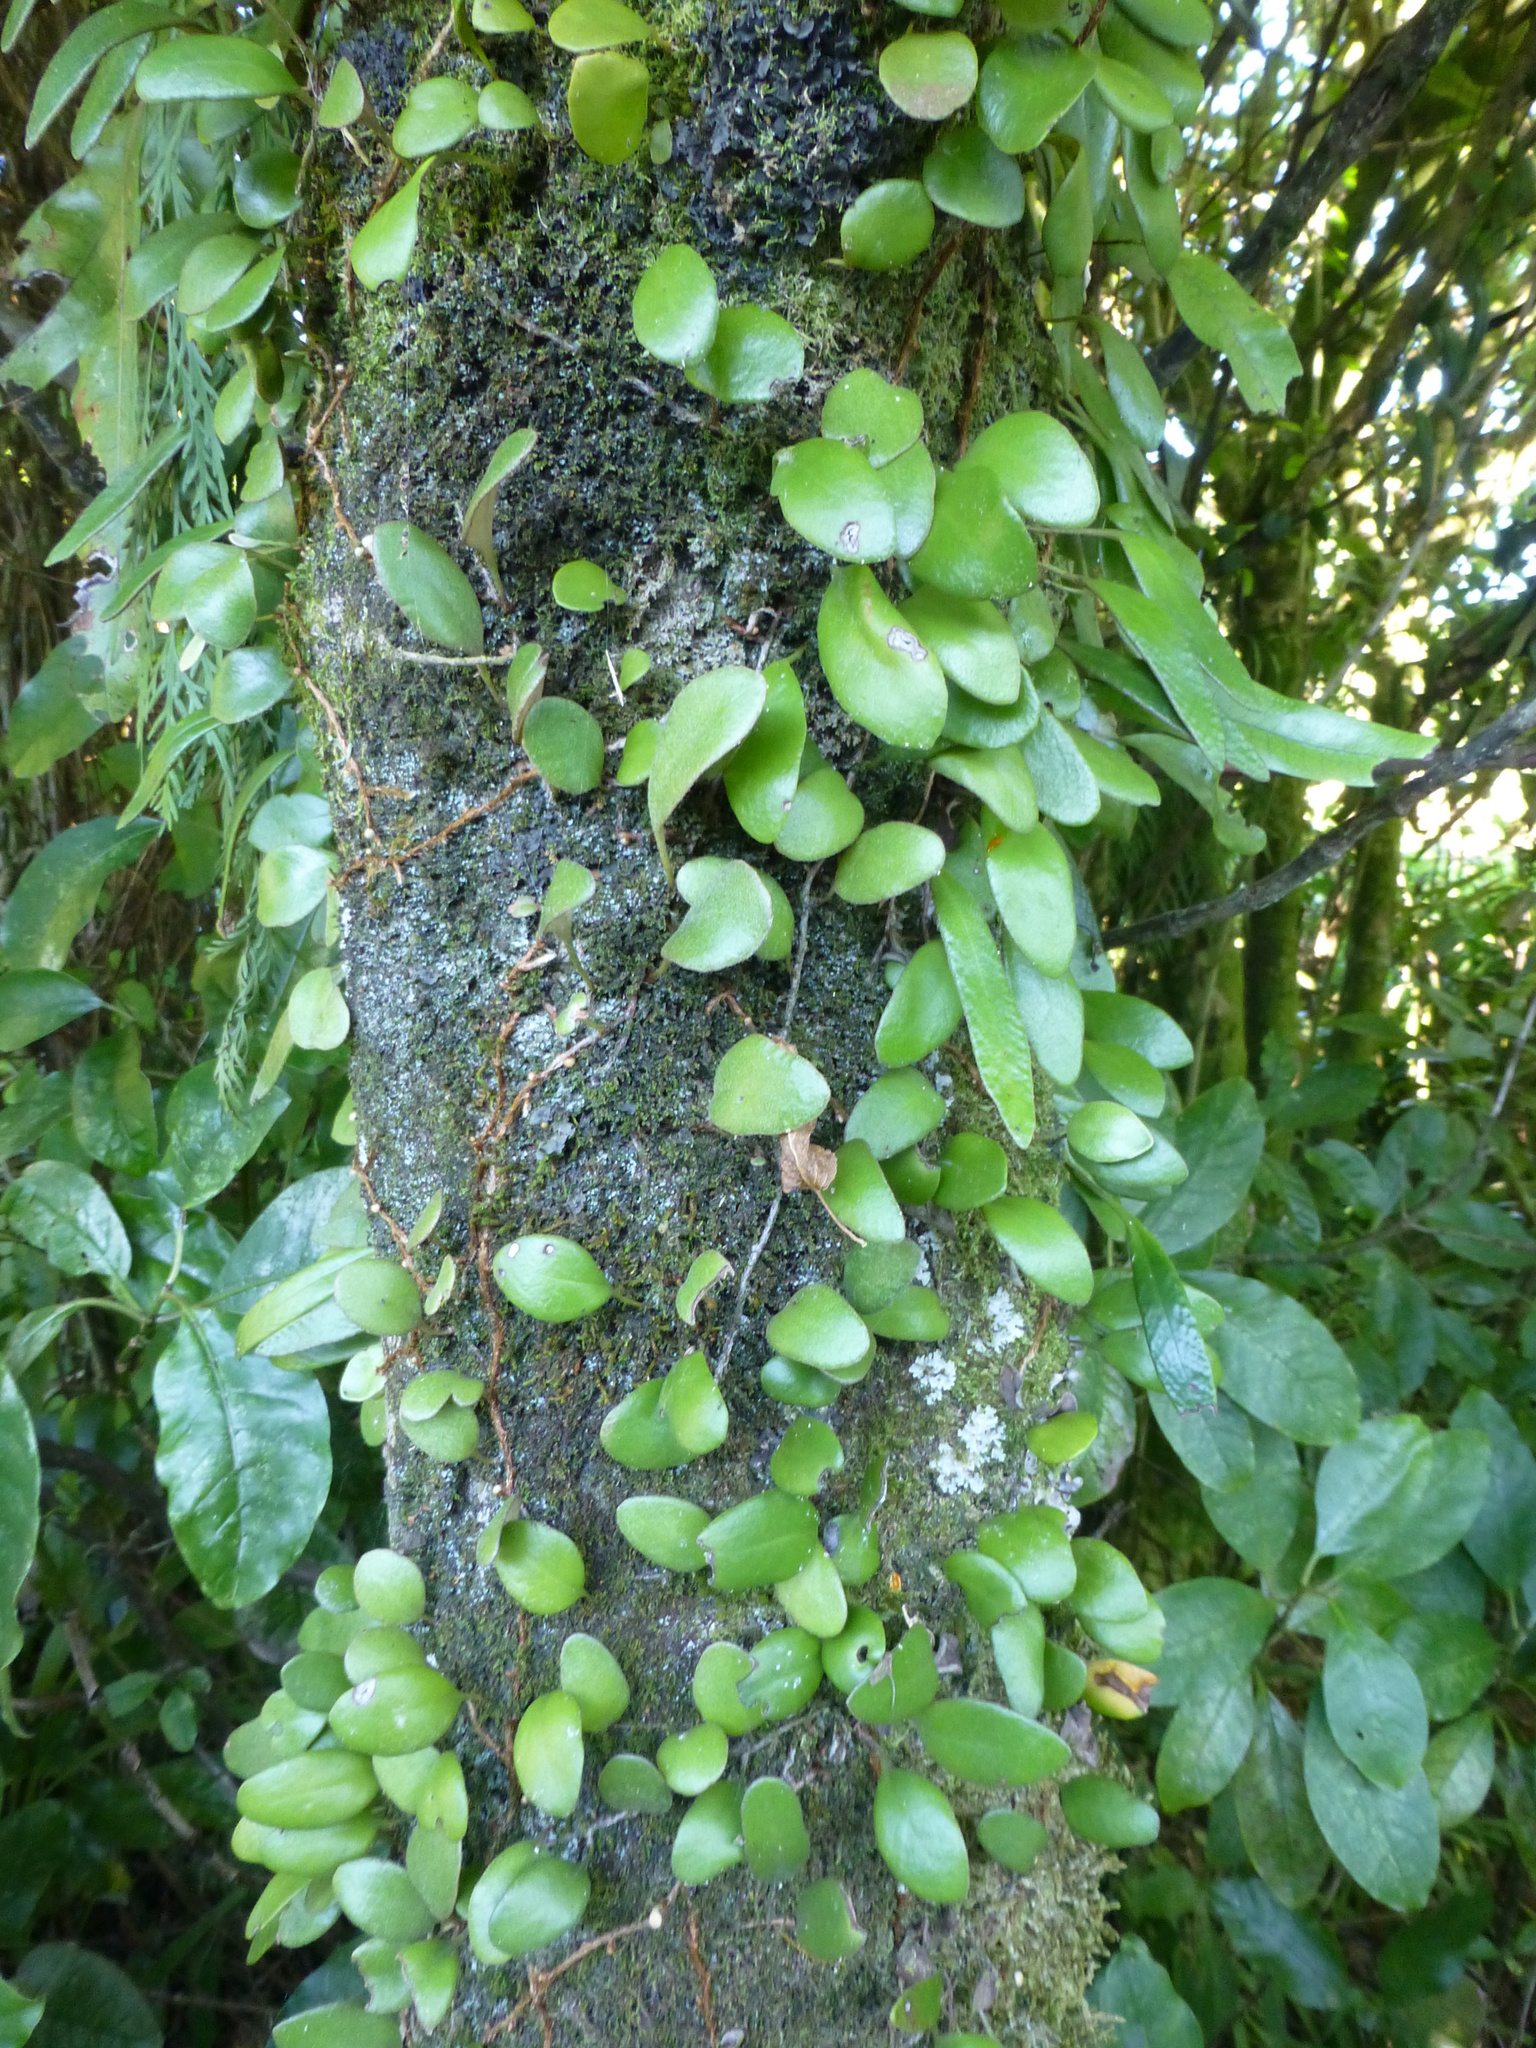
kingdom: Plantae
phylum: Tracheophyta
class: Polypodiopsida
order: Polypodiales
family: Polypodiaceae
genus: Pyrrosia
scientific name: Pyrrosia eleagnifolia
